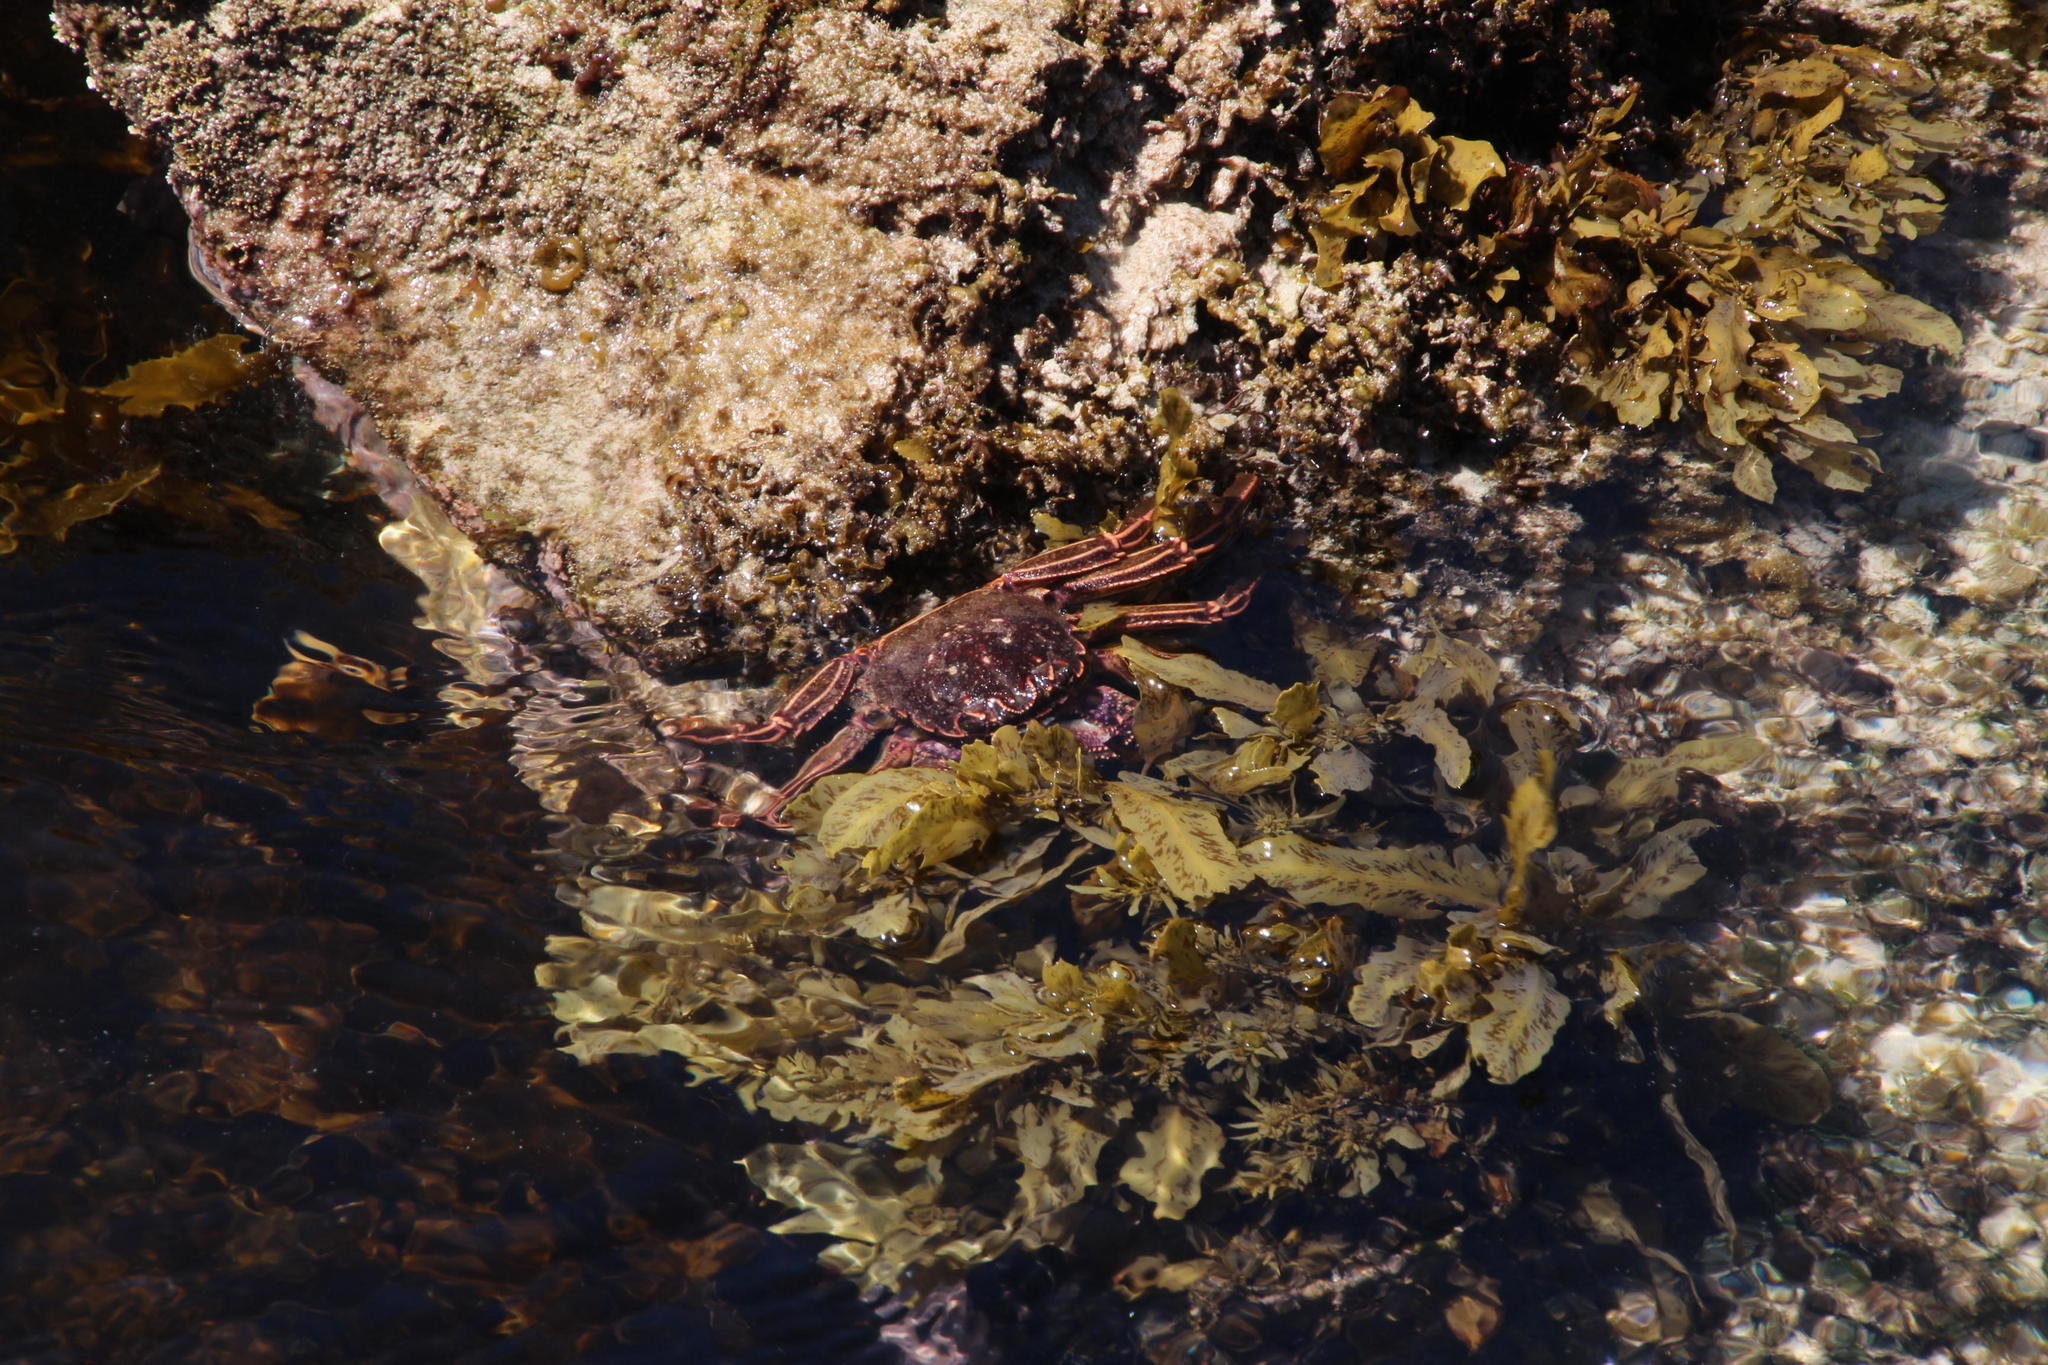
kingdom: Animalia
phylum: Arthropoda
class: Malacostraca
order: Decapoda
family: Plagusiidae
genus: Guinusia
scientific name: Guinusia chabrus
